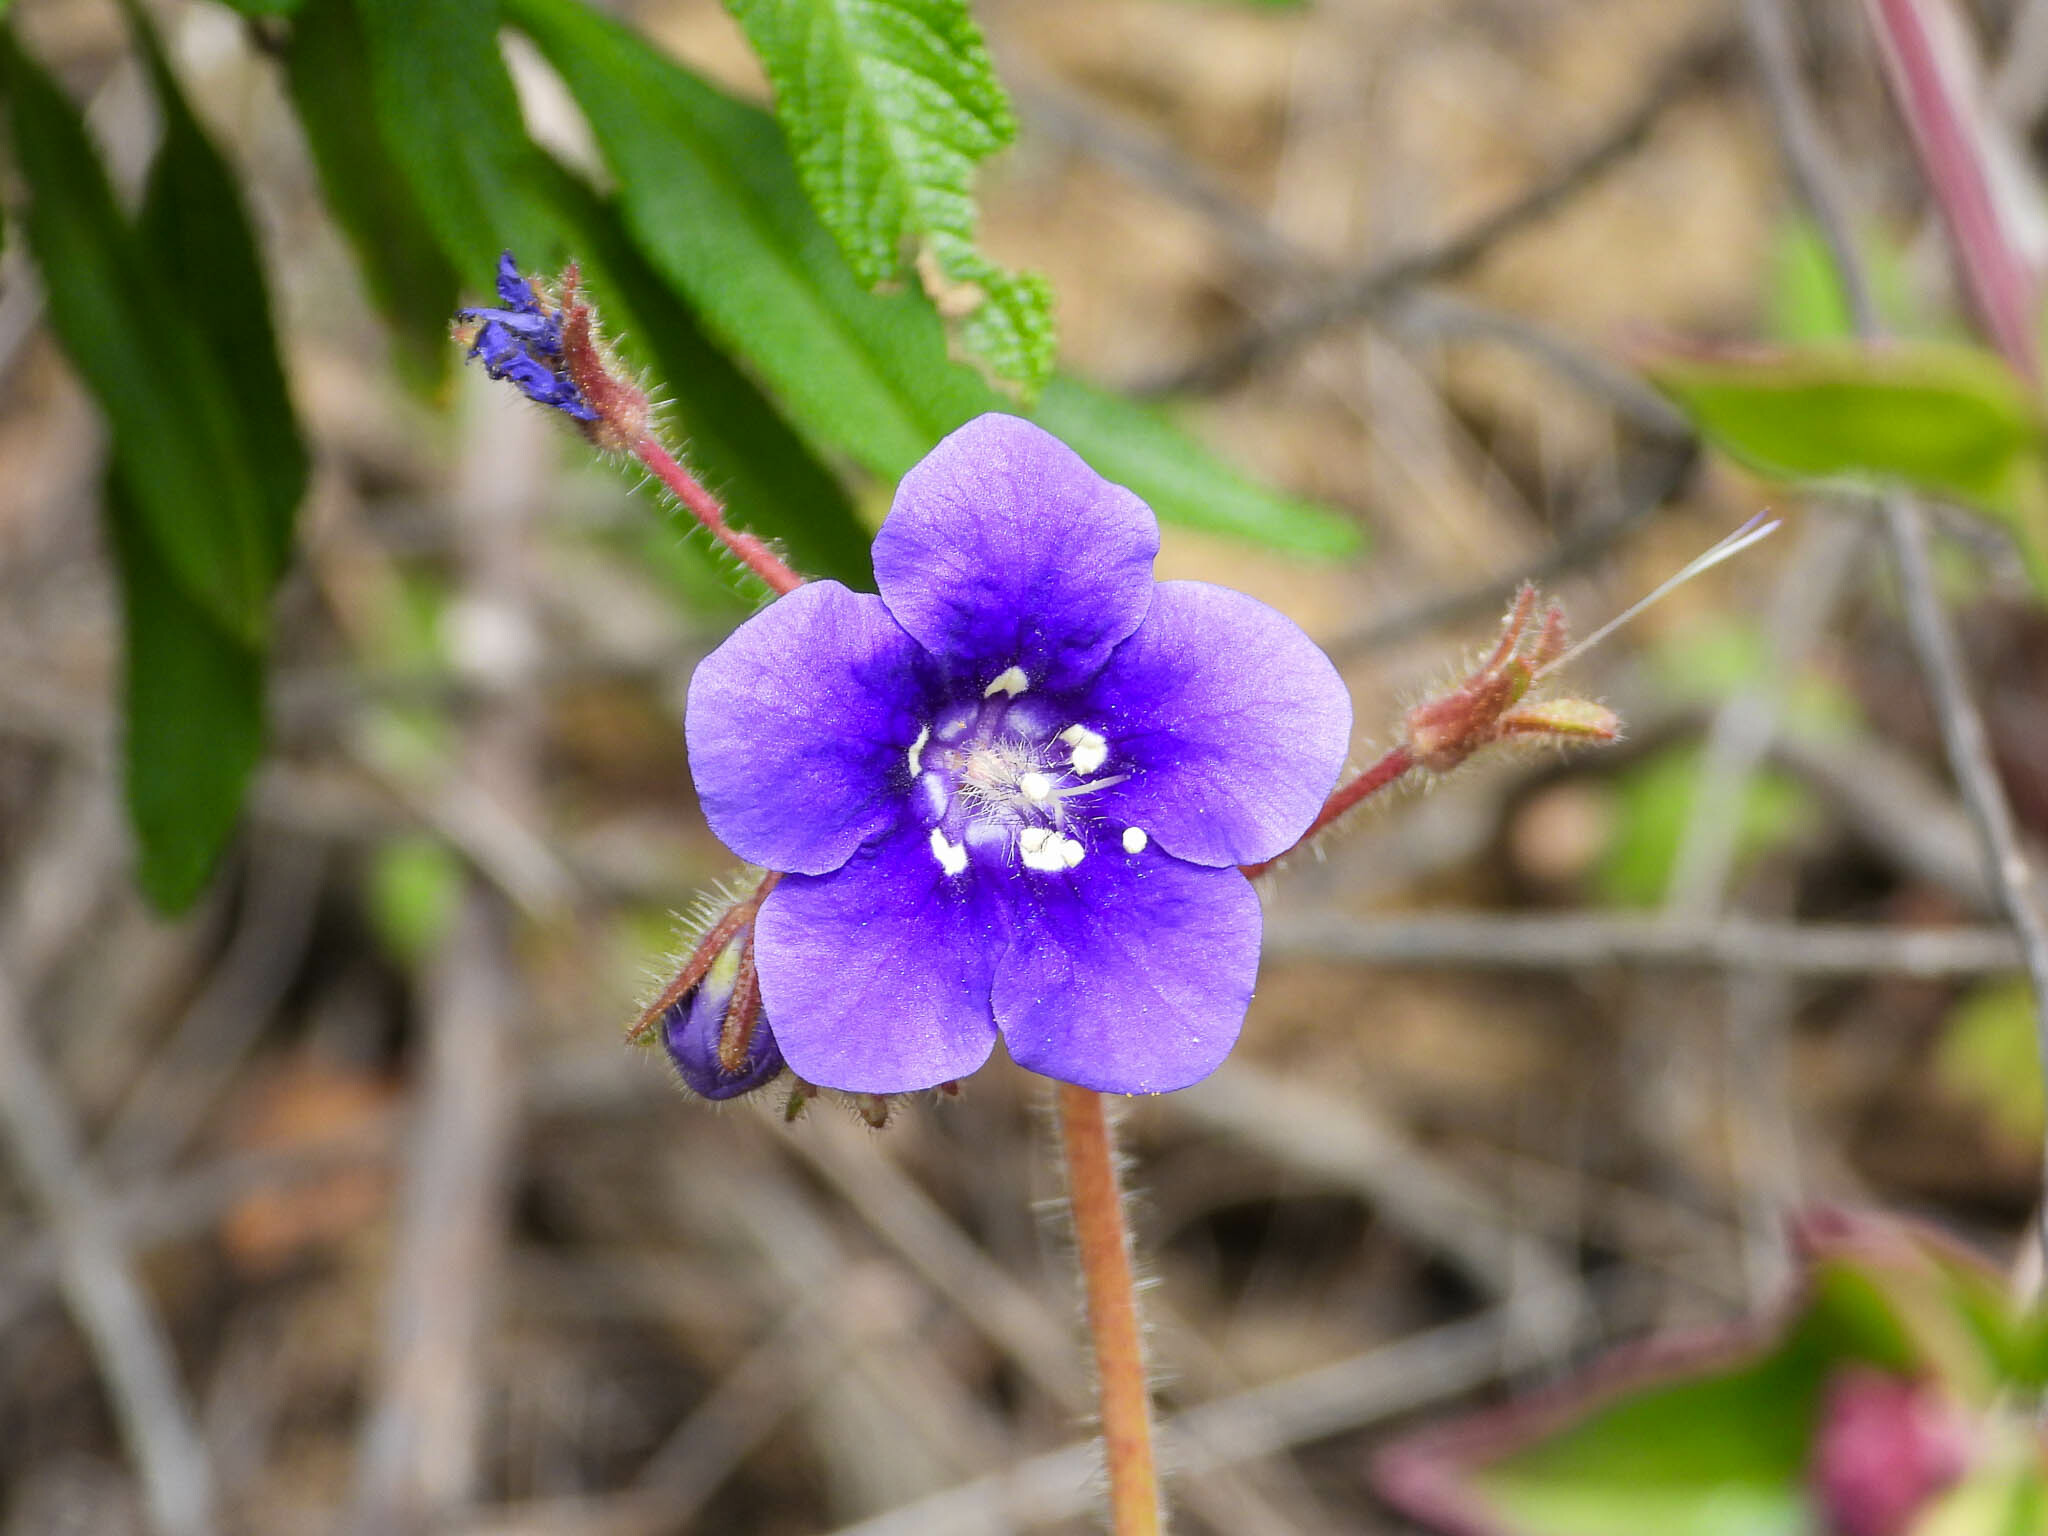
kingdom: Plantae
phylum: Tracheophyta
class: Magnoliopsida
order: Boraginales
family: Hydrophyllaceae
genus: Phacelia
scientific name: Phacelia parryi
